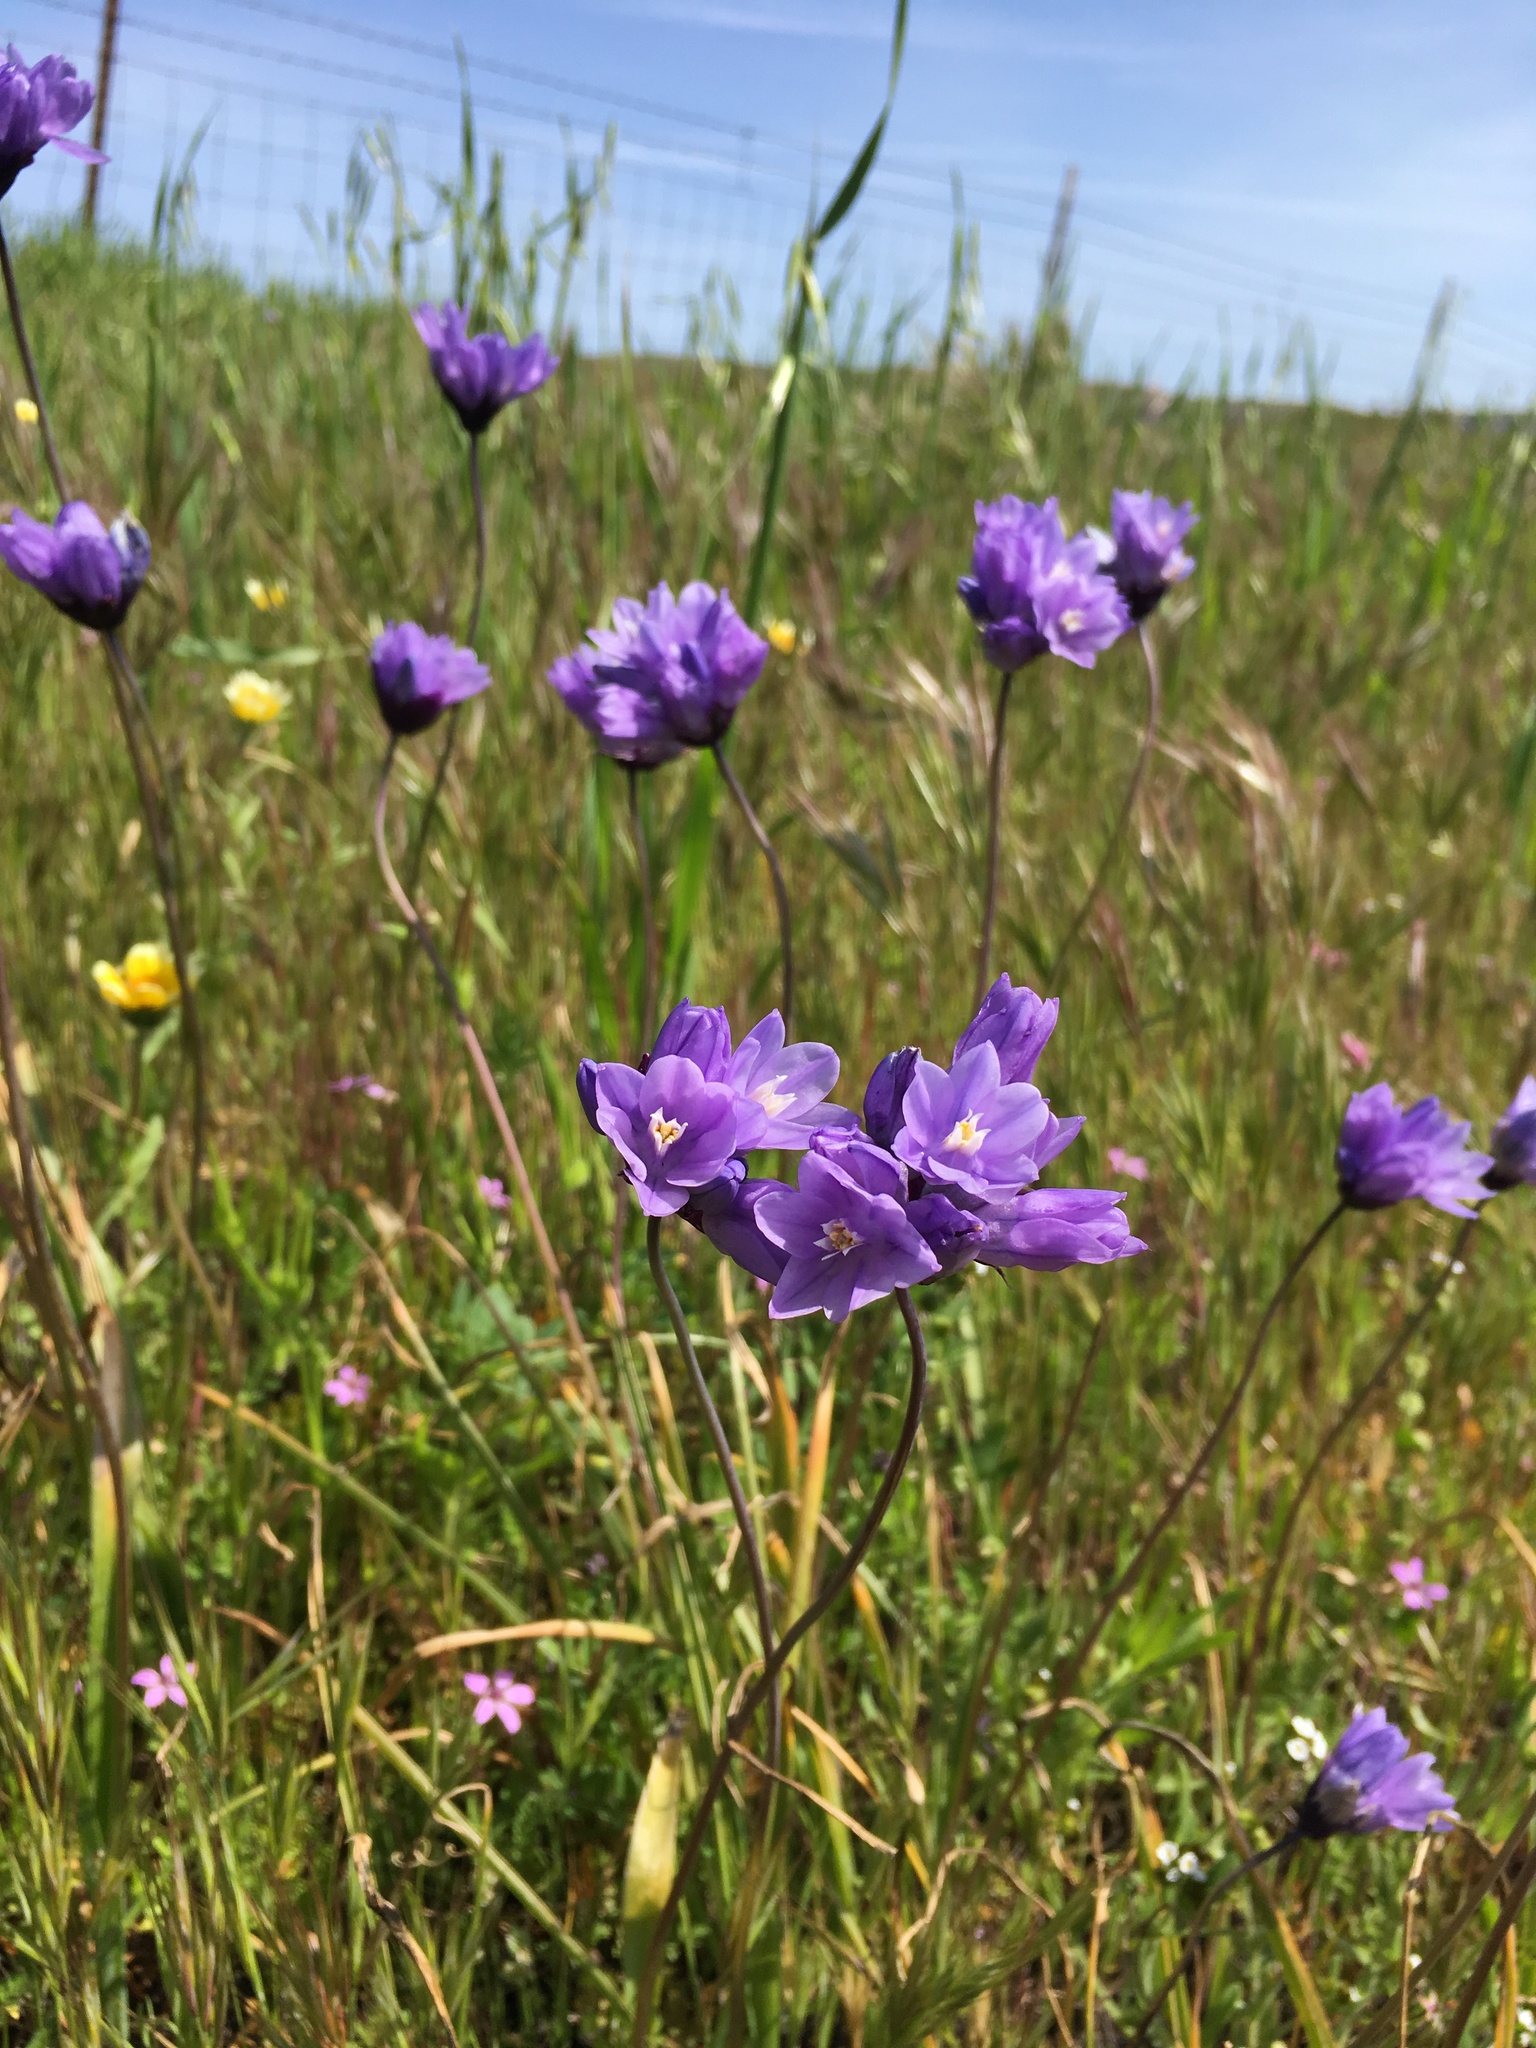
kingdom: Plantae
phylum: Tracheophyta
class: Liliopsida
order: Asparagales
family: Asparagaceae
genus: Dipterostemon
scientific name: Dipterostemon capitatus
